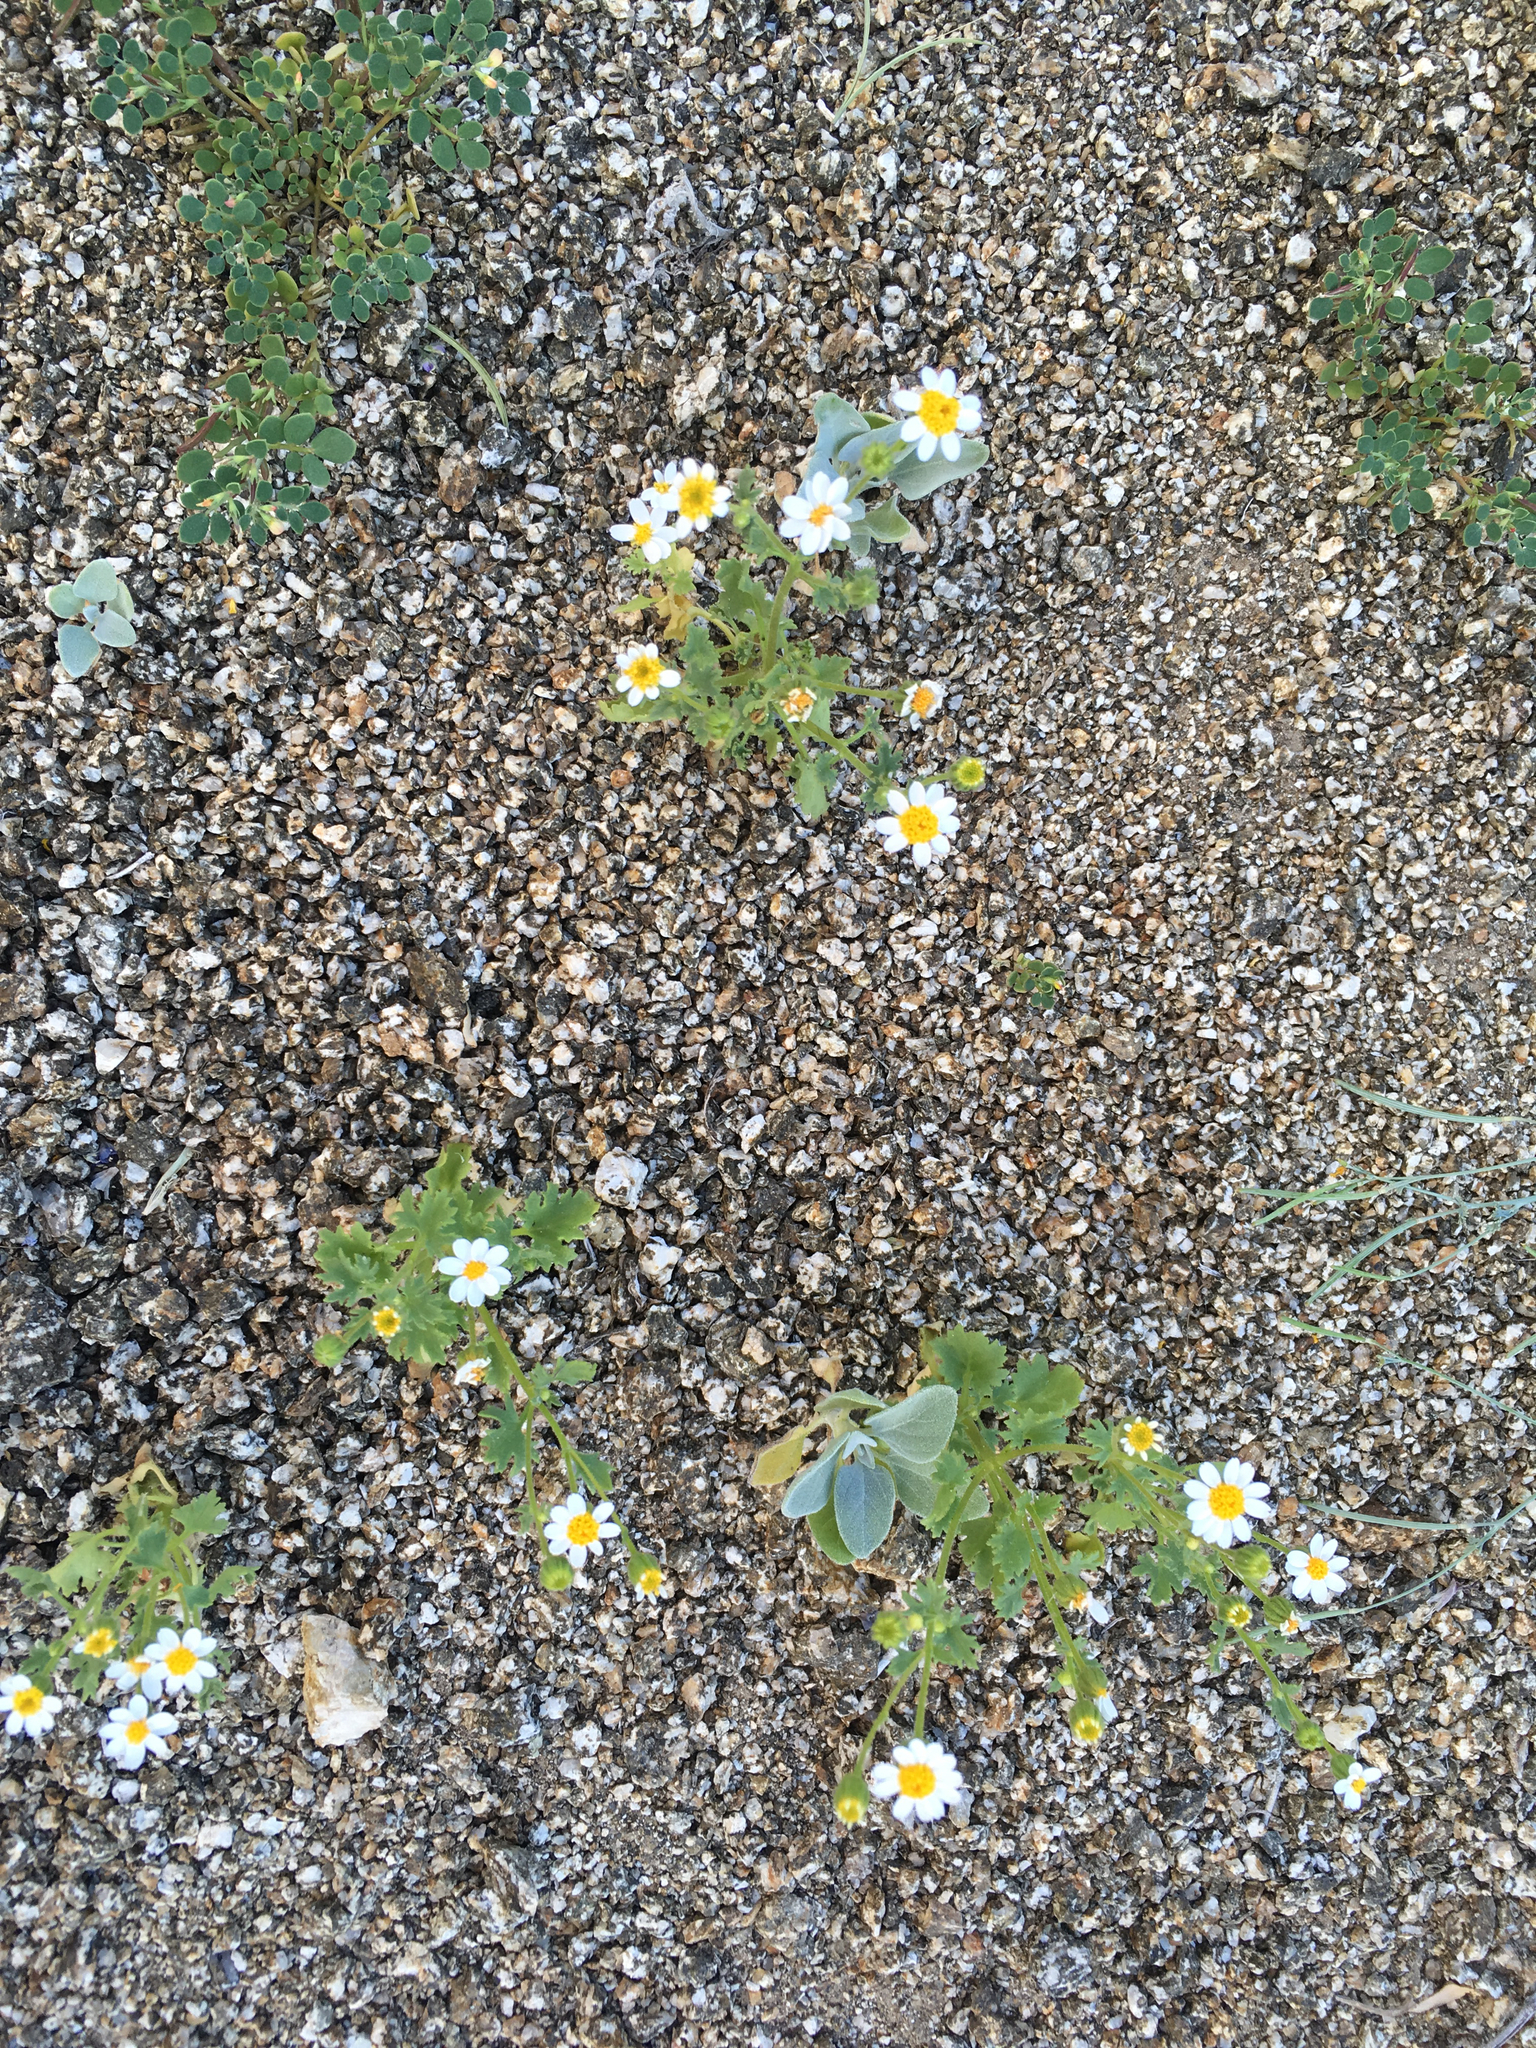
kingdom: Plantae
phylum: Tracheophyta
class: Magnoliopsida
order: Asterales
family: Asteraceae
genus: Laphamia
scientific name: Laphamia emoryi
